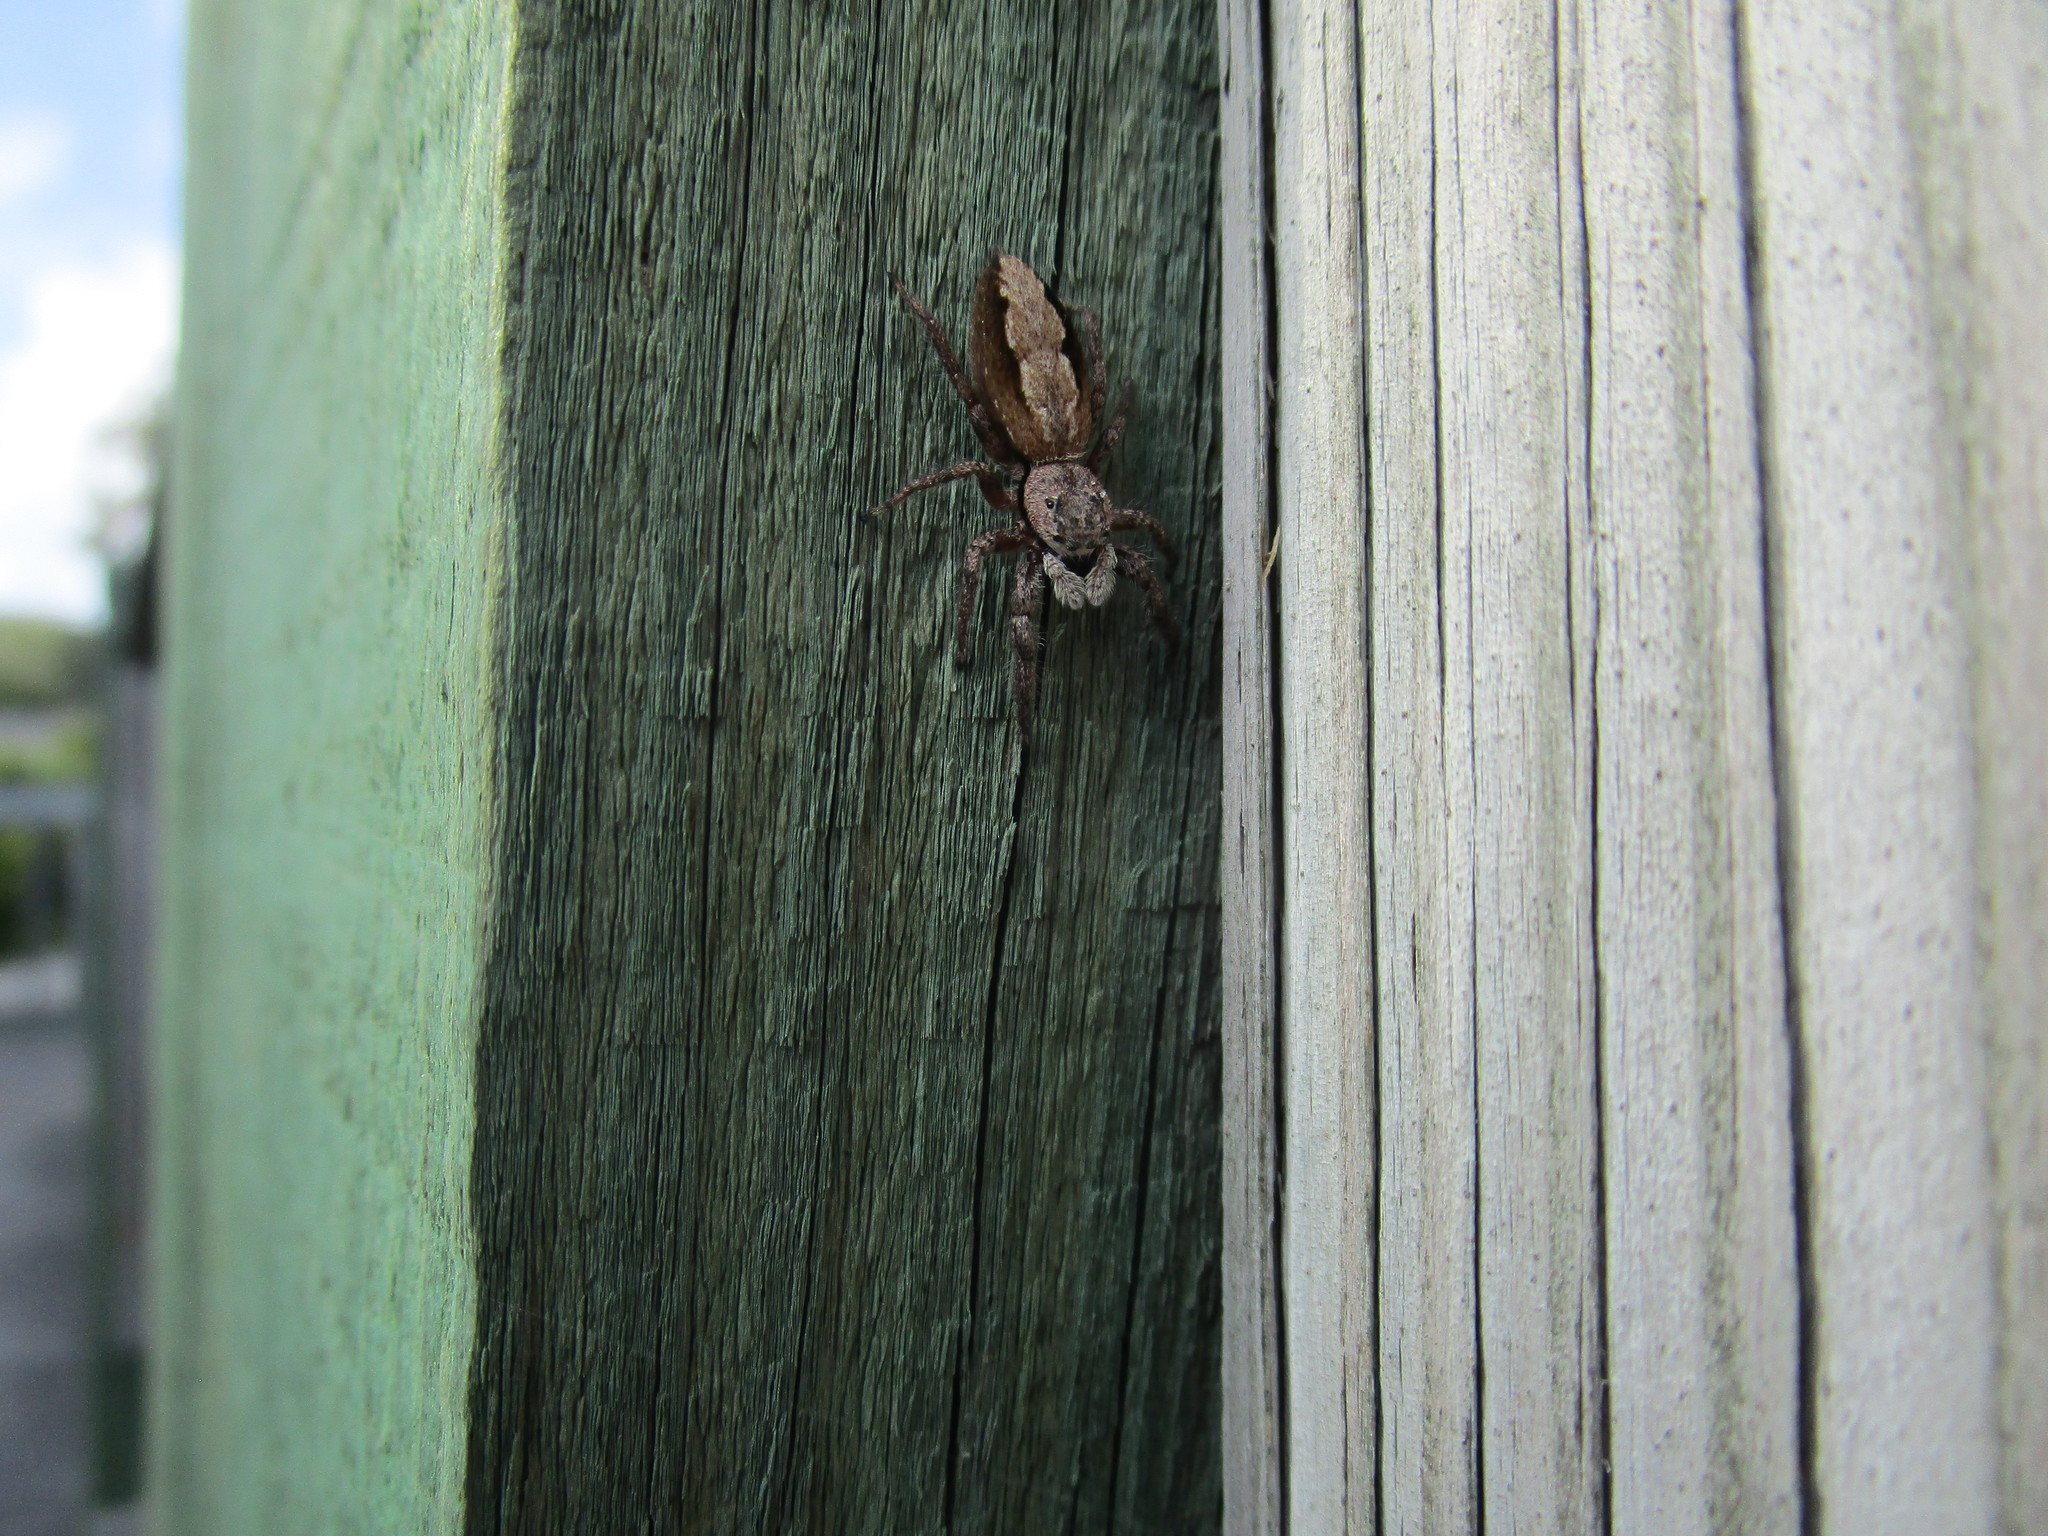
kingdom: Animalia
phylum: Arthropoda
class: Arachnida
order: Araneae
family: Salticidae
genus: Platycryptus
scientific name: Platycryptus undatus
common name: Tan jumping spider
